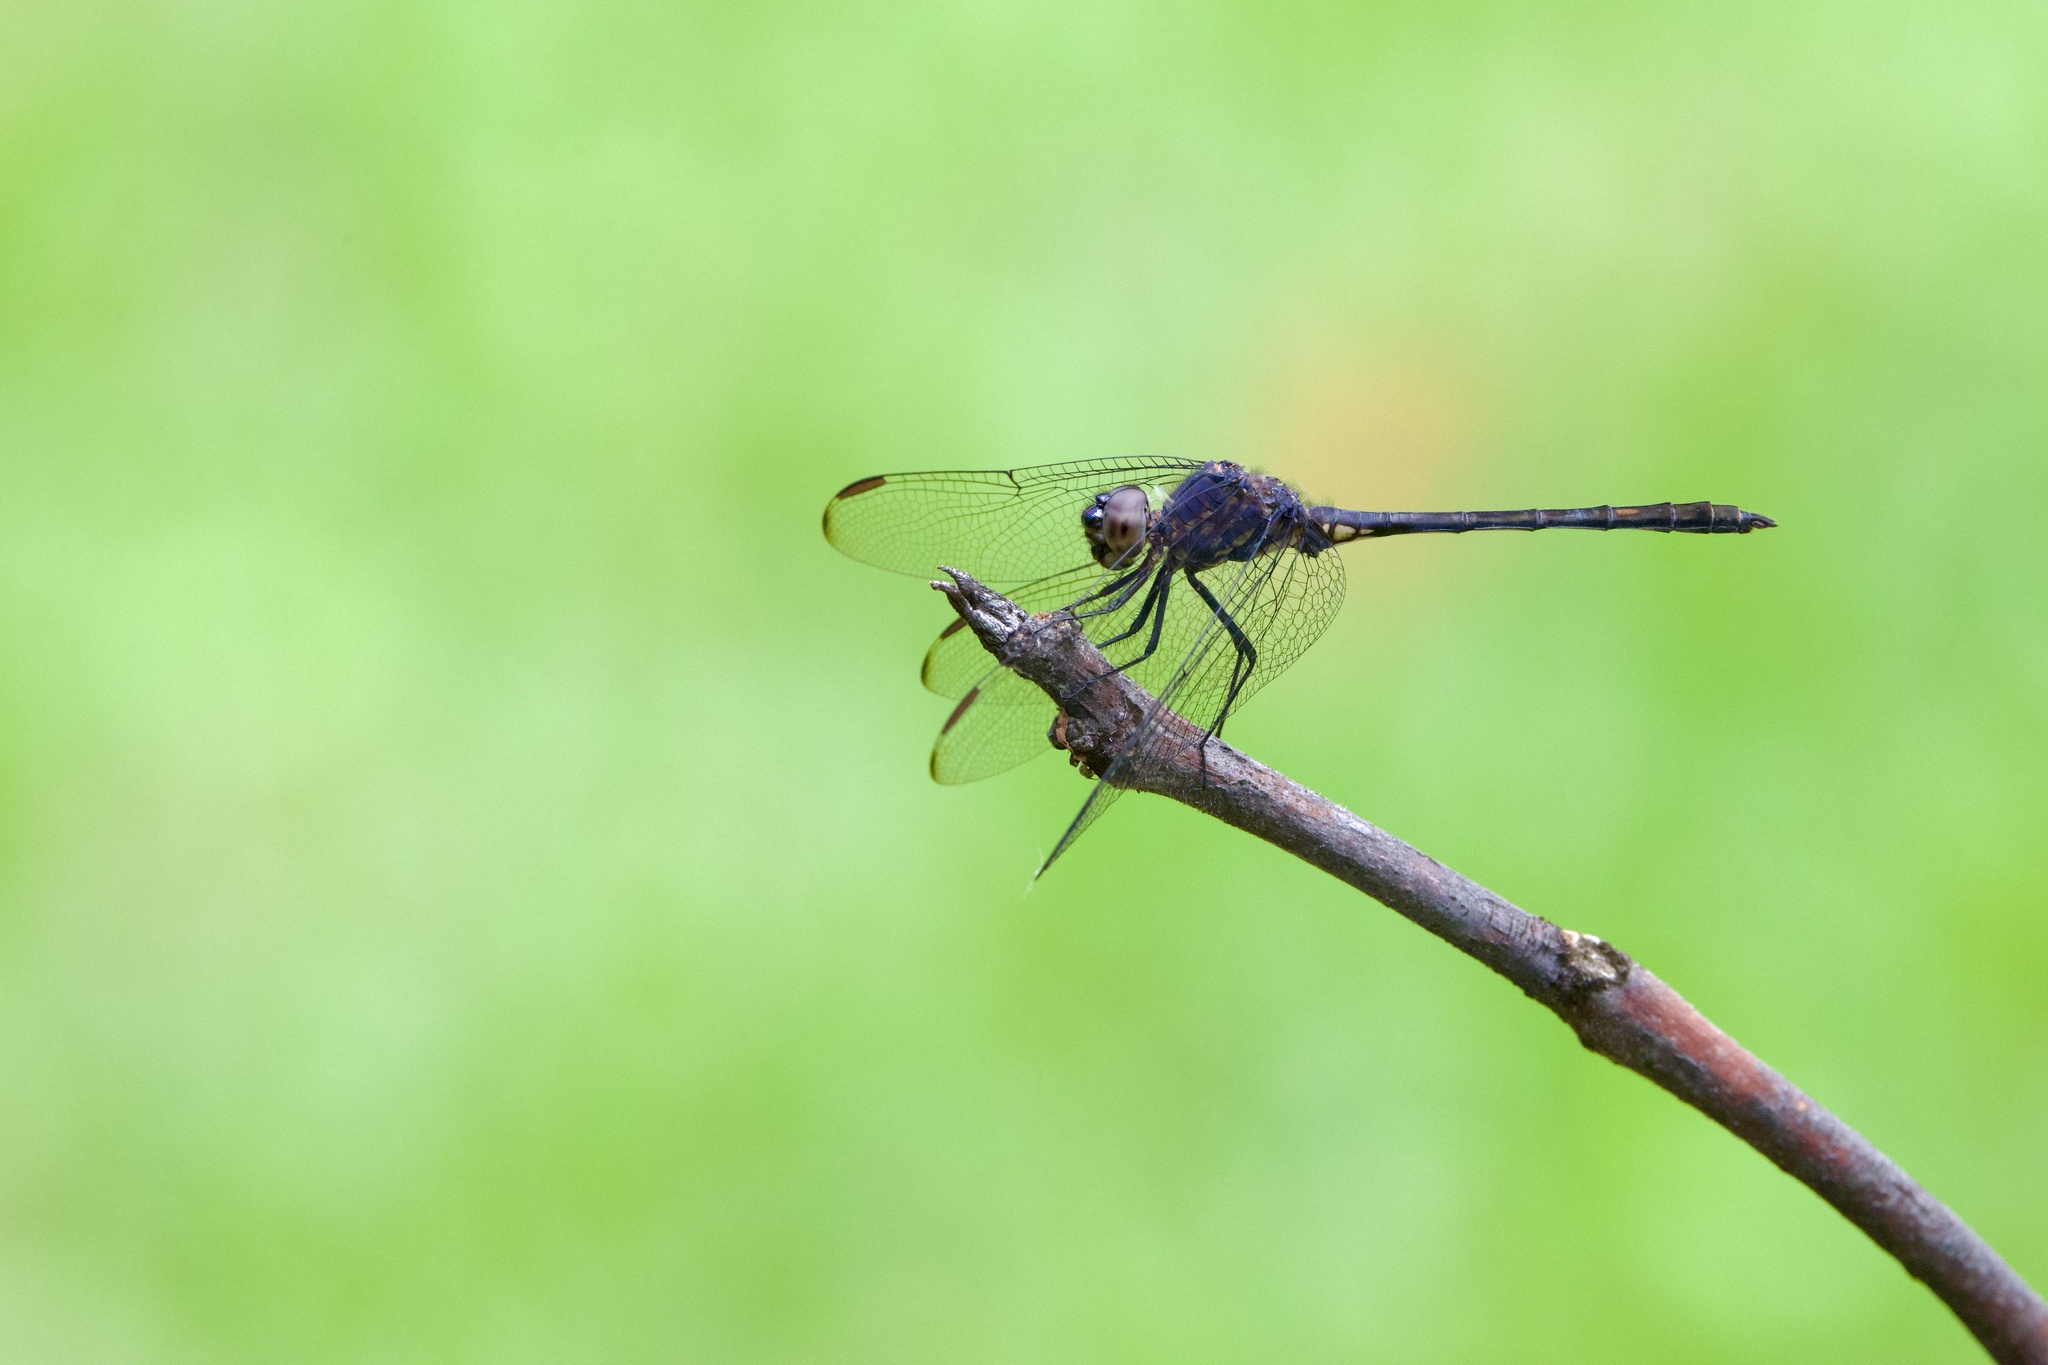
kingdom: Animalia
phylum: Arthropoda
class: Insecta
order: Odonata
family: Libellulidae
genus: Dythemis
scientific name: Dythemis nigrescens
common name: Black setwing
